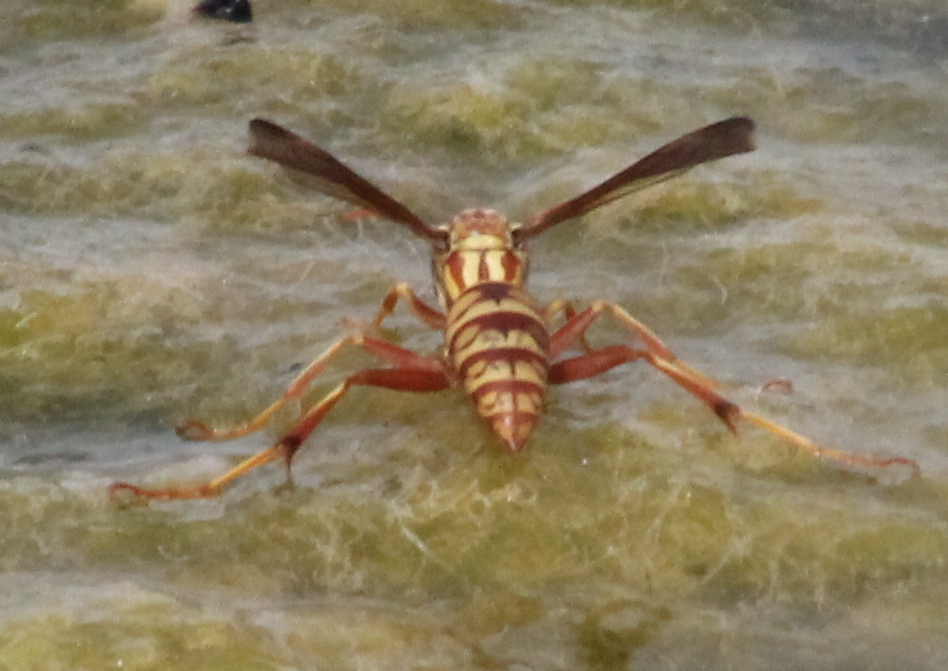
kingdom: Animalia
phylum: Arthropoda
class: Insecta
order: Hymenoptera
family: Eumenidae
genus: Polistes
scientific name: Polistes apachus
